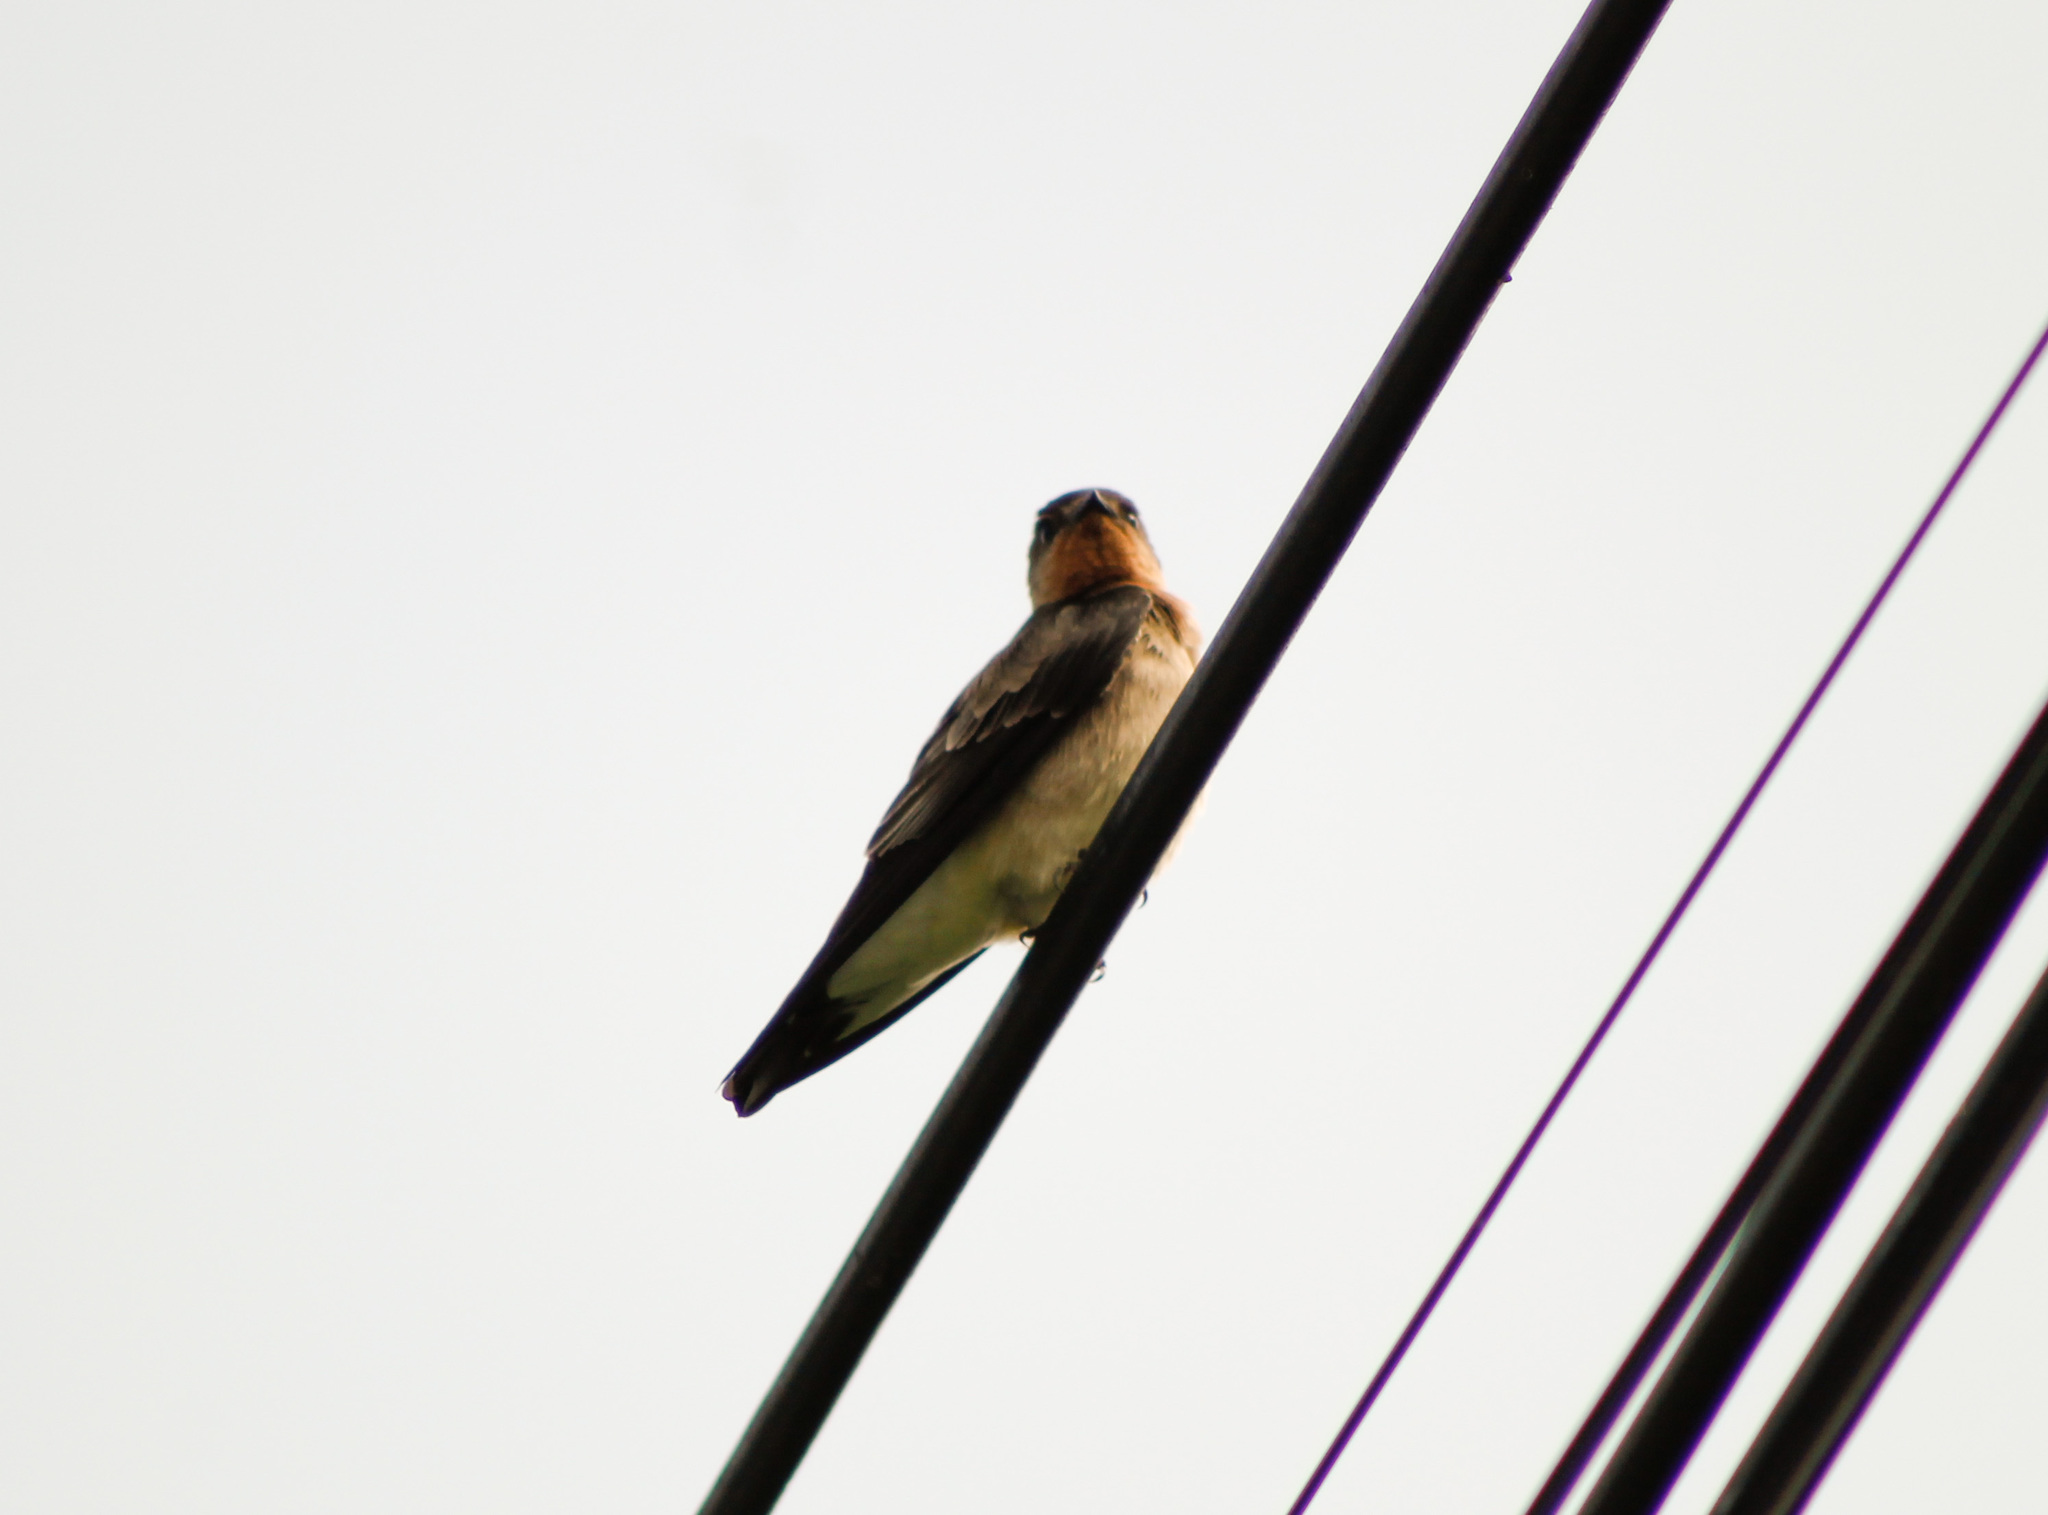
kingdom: Animalia
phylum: Chordata
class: Aves
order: Passeriformes
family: Hirundinidae
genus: Stelgidopteryx
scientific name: Stelgidopteryx ruficollis
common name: Southern rough-winged swallow
